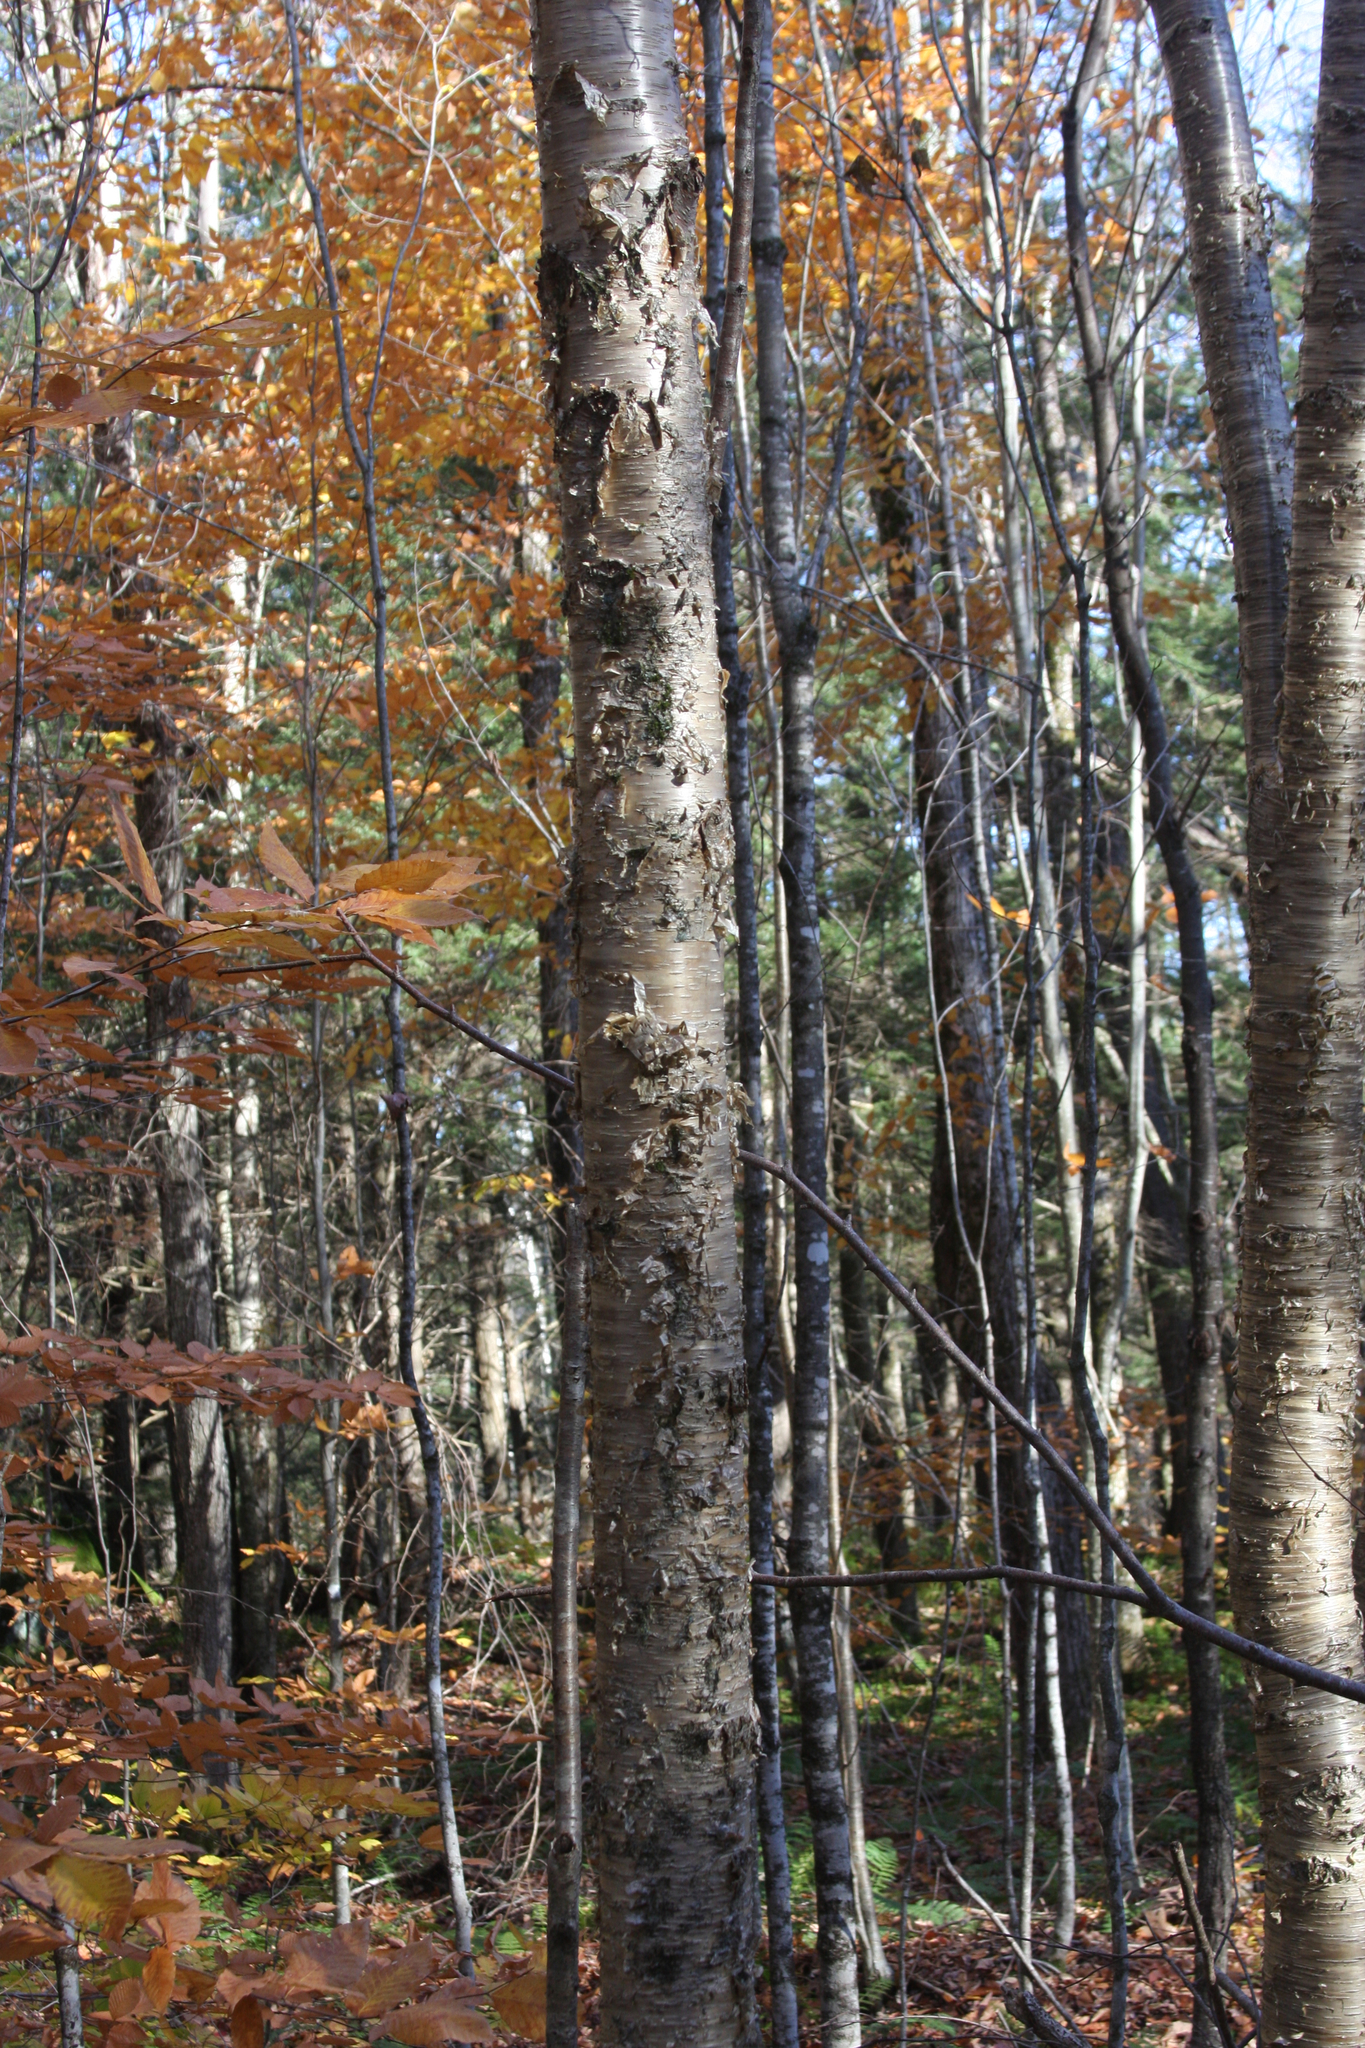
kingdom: Plantae
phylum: Tracheophyta
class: Magnoliopsida
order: Fagales
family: Betulaceae
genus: Betula
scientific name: Betula alleghaniensis
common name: Yellow birch
